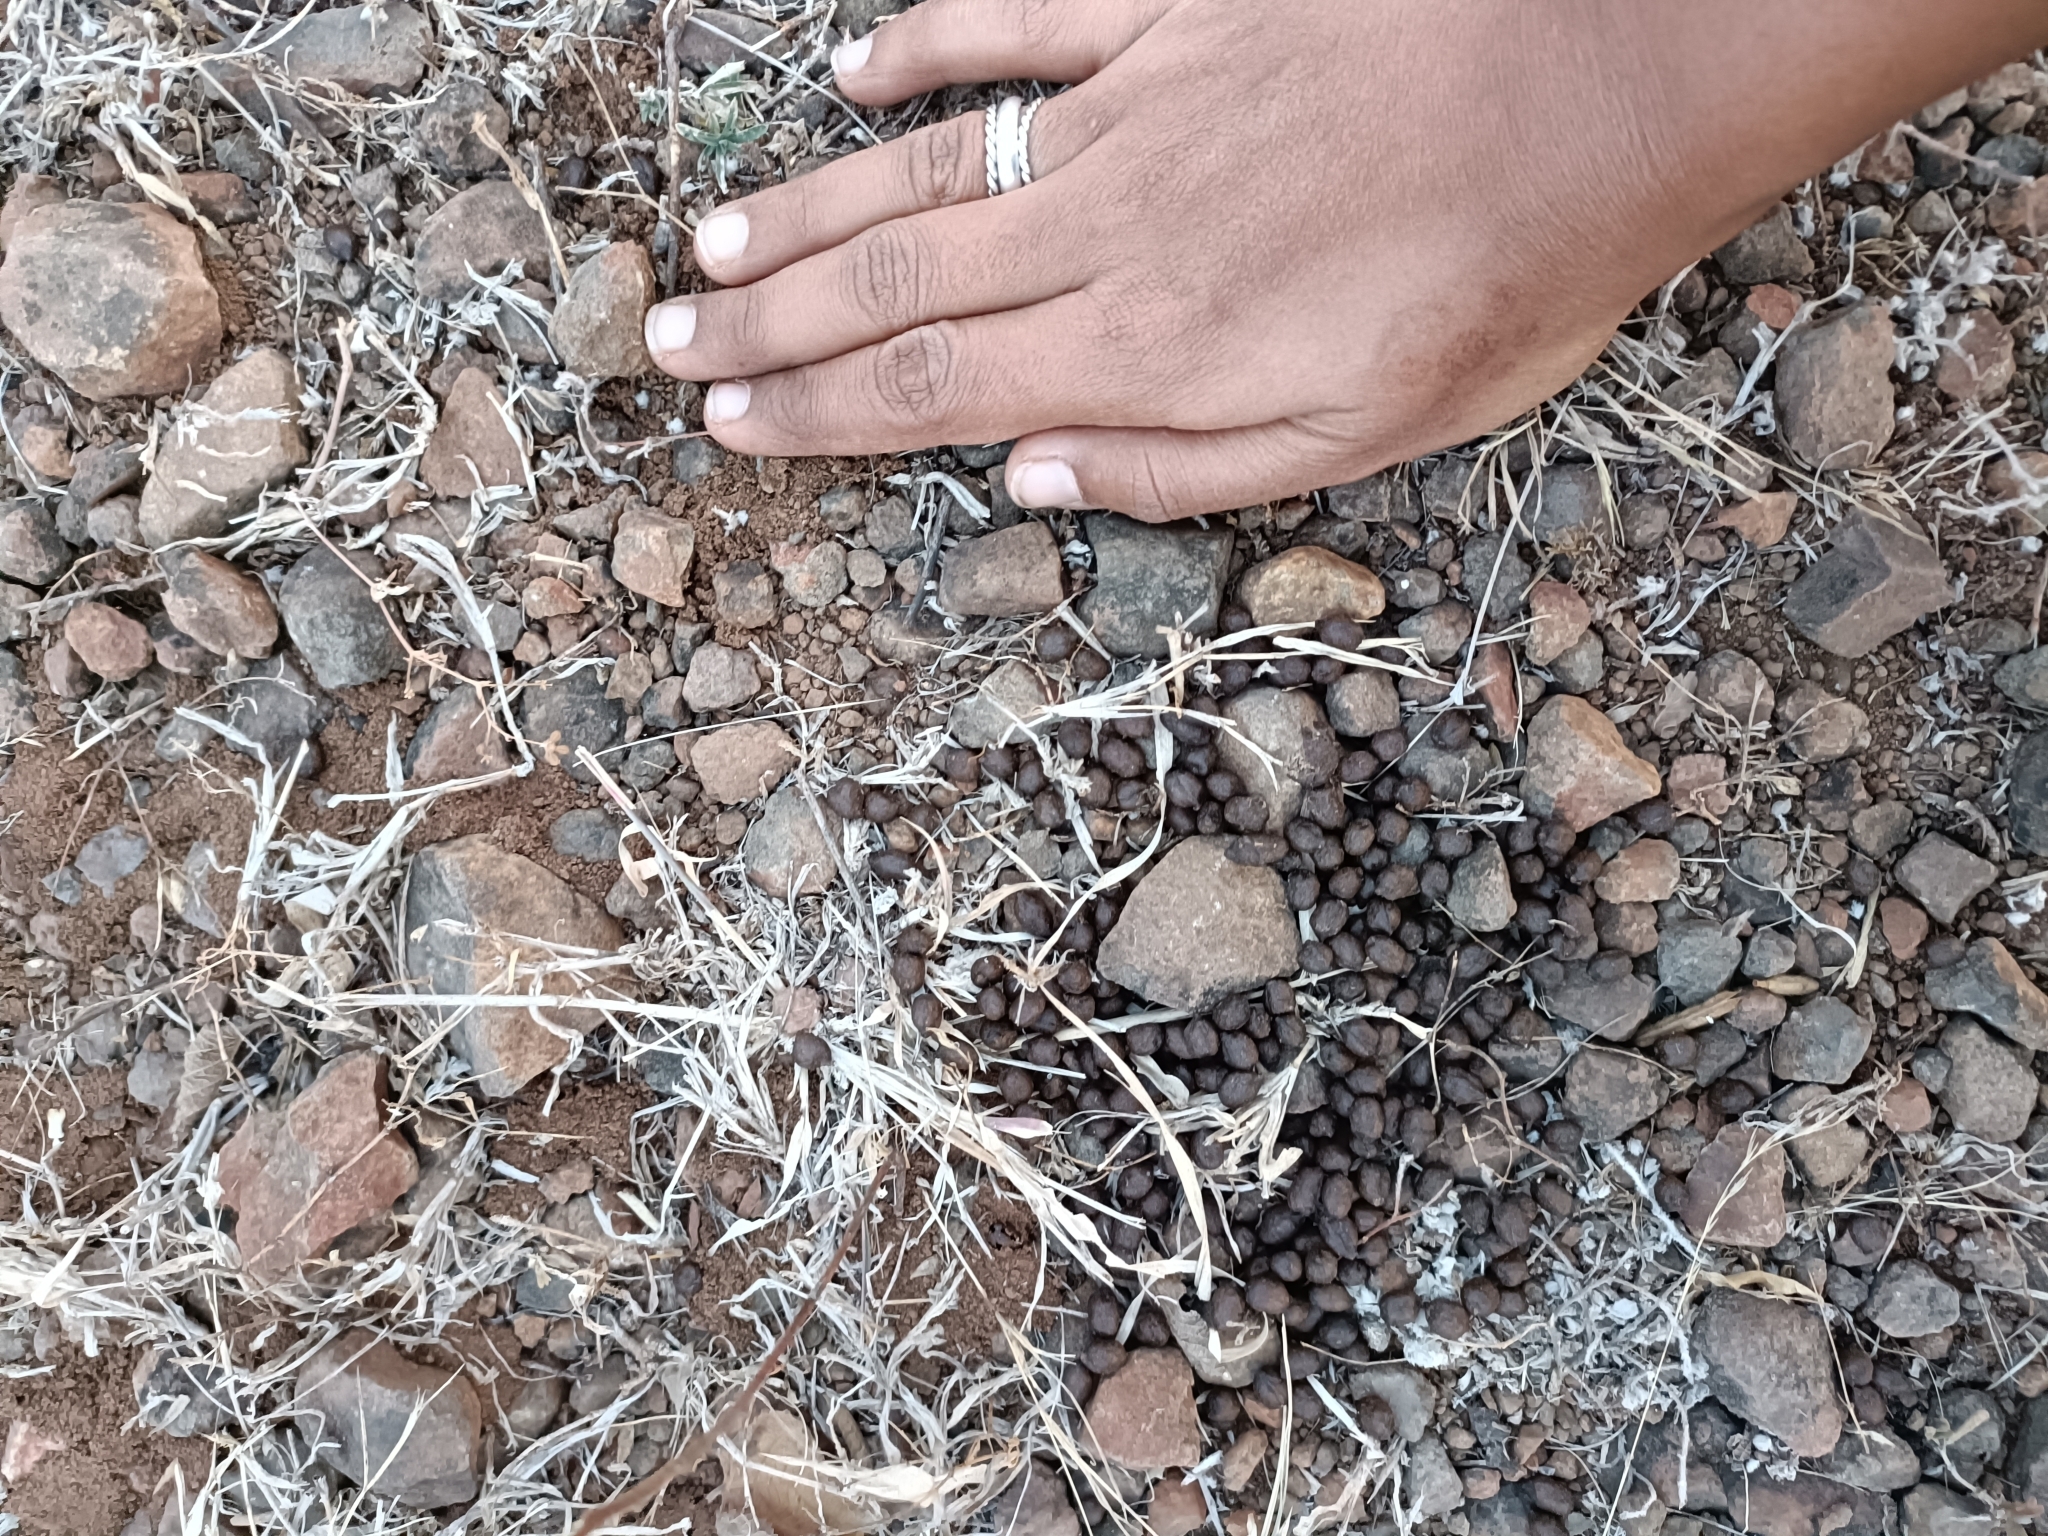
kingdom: Animalia
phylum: Chordata
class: Mammalia
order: Artiodactyla
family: Bovidae
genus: Gazella
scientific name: Gazella bennettii
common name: Indian gazelle
